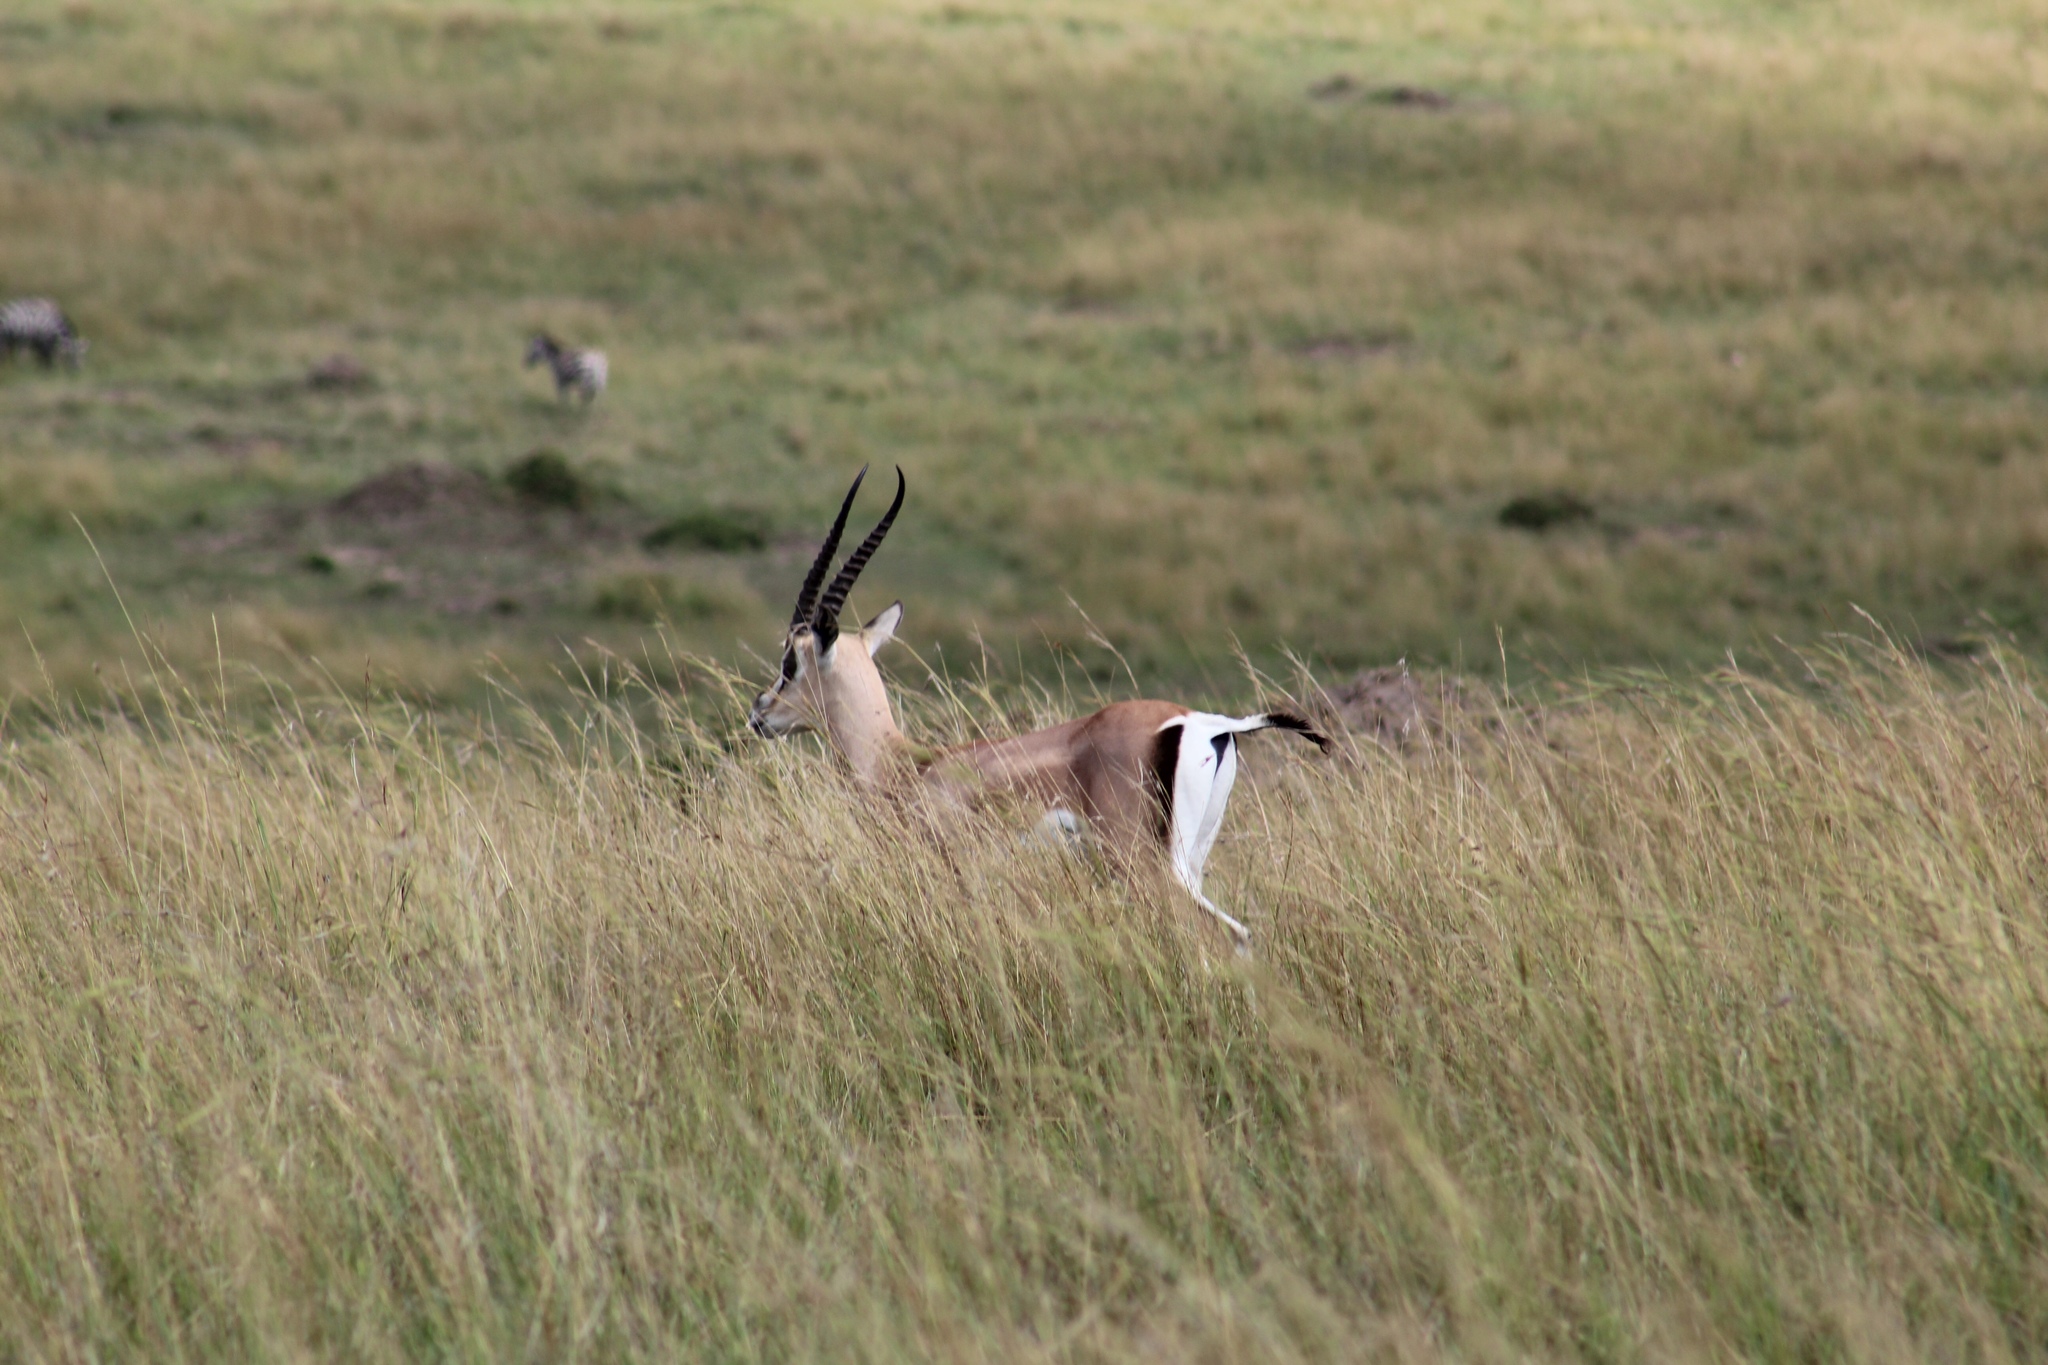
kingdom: Animalia
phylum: Chordata
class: Mammalia
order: Artiodactyla
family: Bovidae
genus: Nanger
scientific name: Nanger granti
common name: Grant's gazelle
